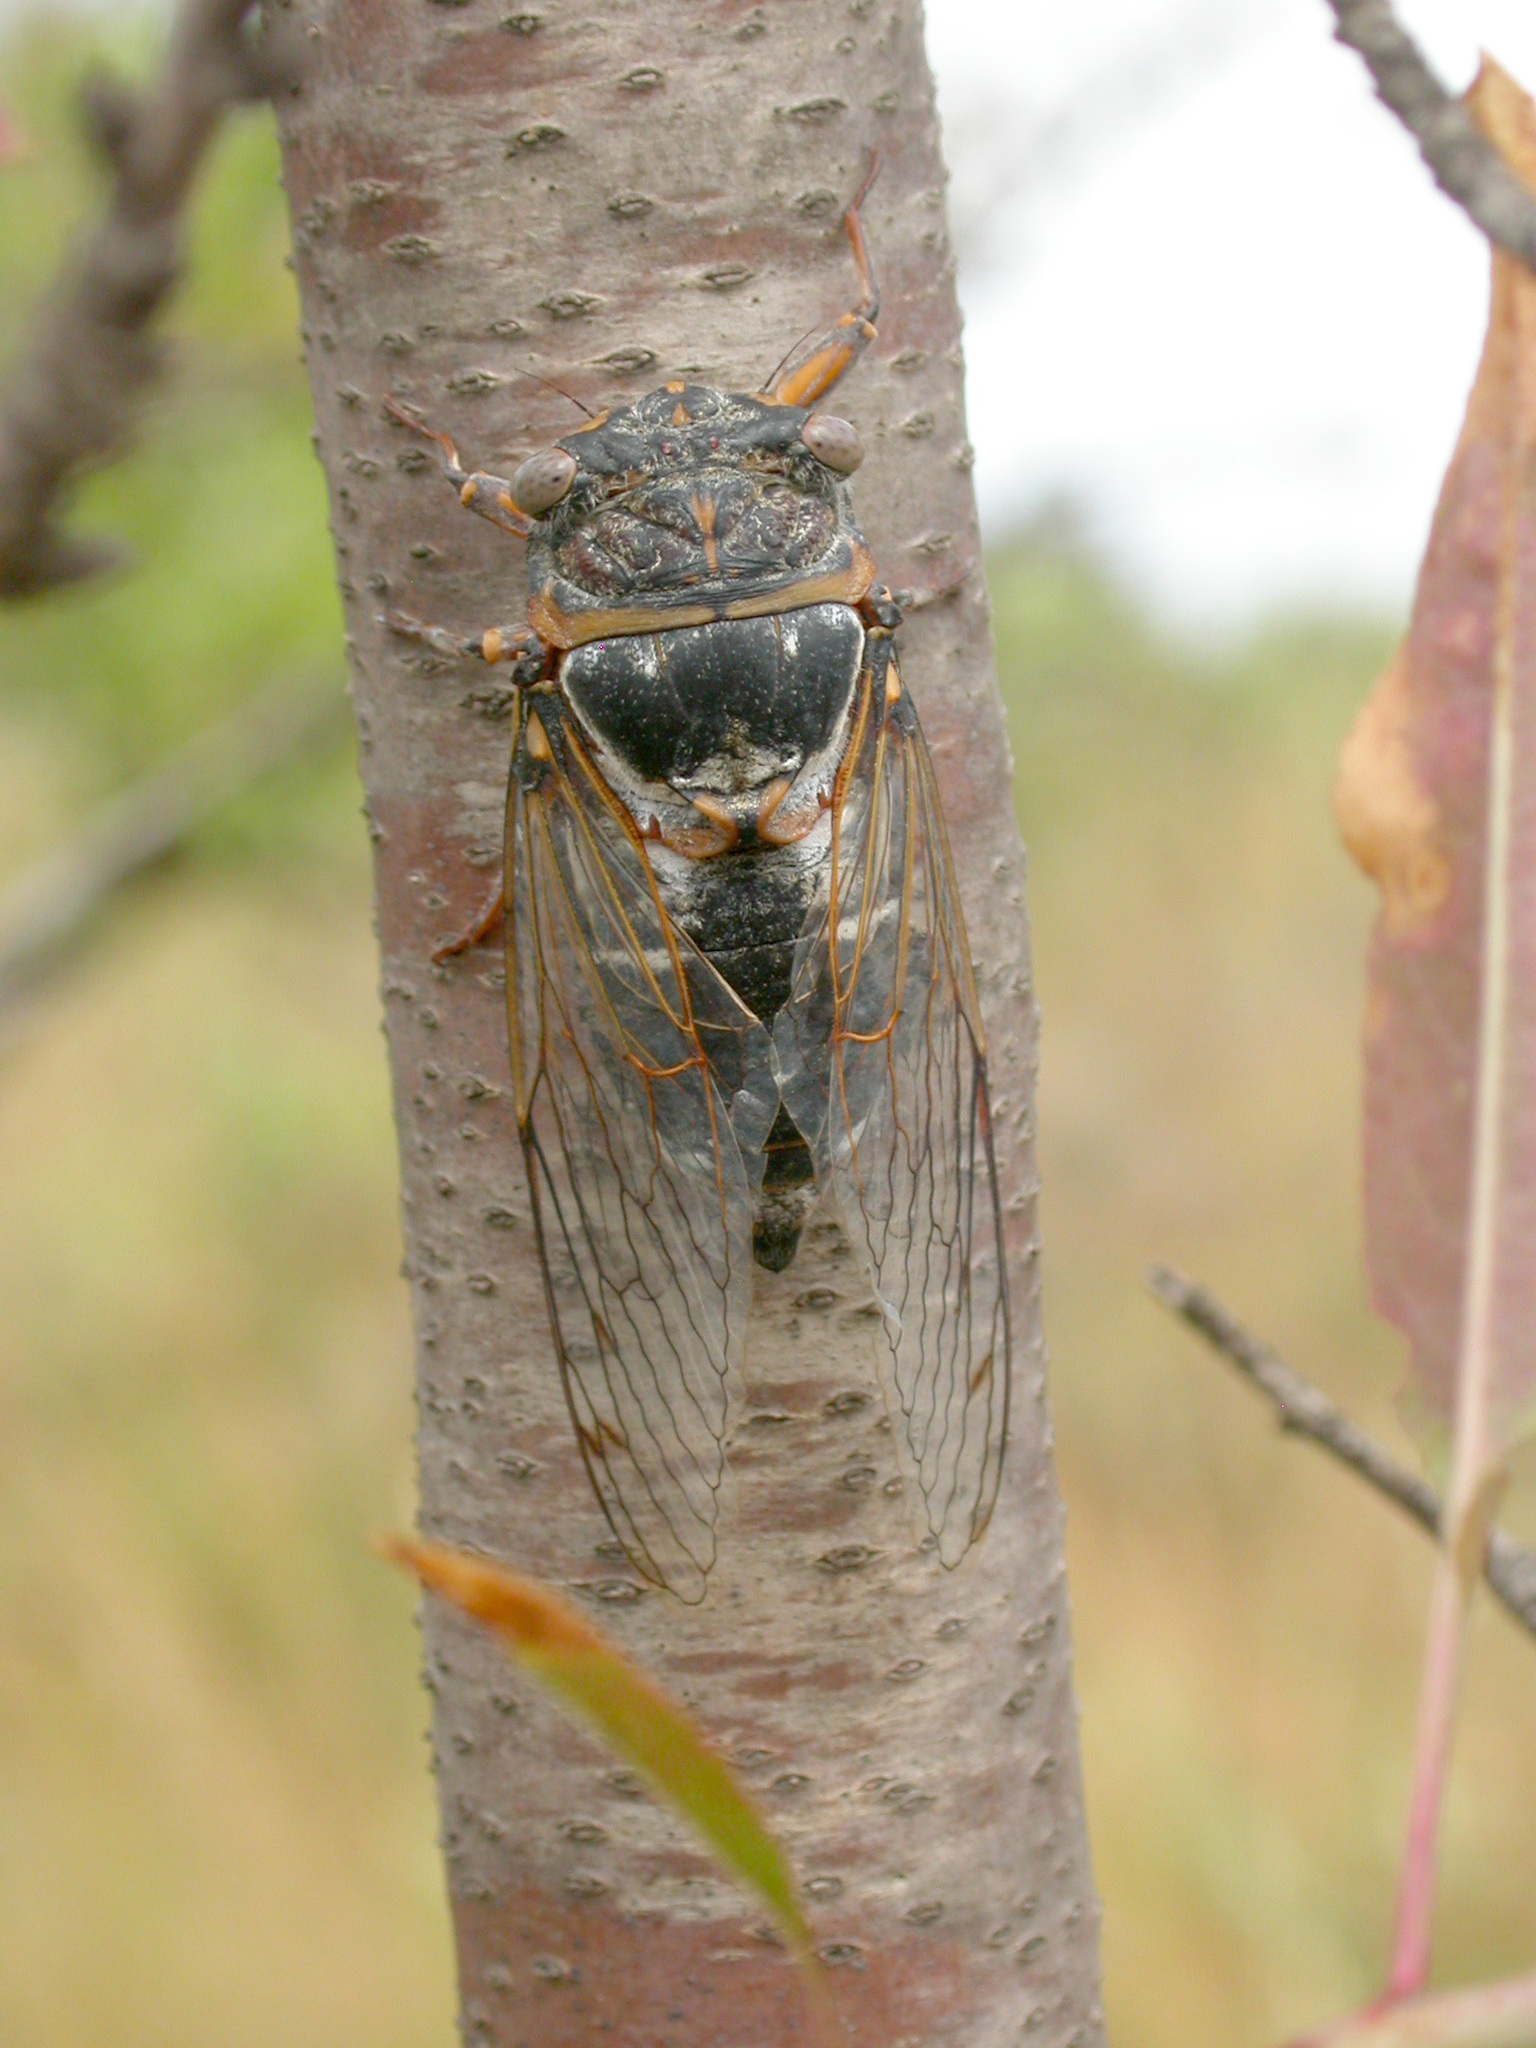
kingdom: Animalia
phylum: Arthropoda
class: Insecta
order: Hemiptera
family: Cicadidae
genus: Lyristes
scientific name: Lyristes plebejus
